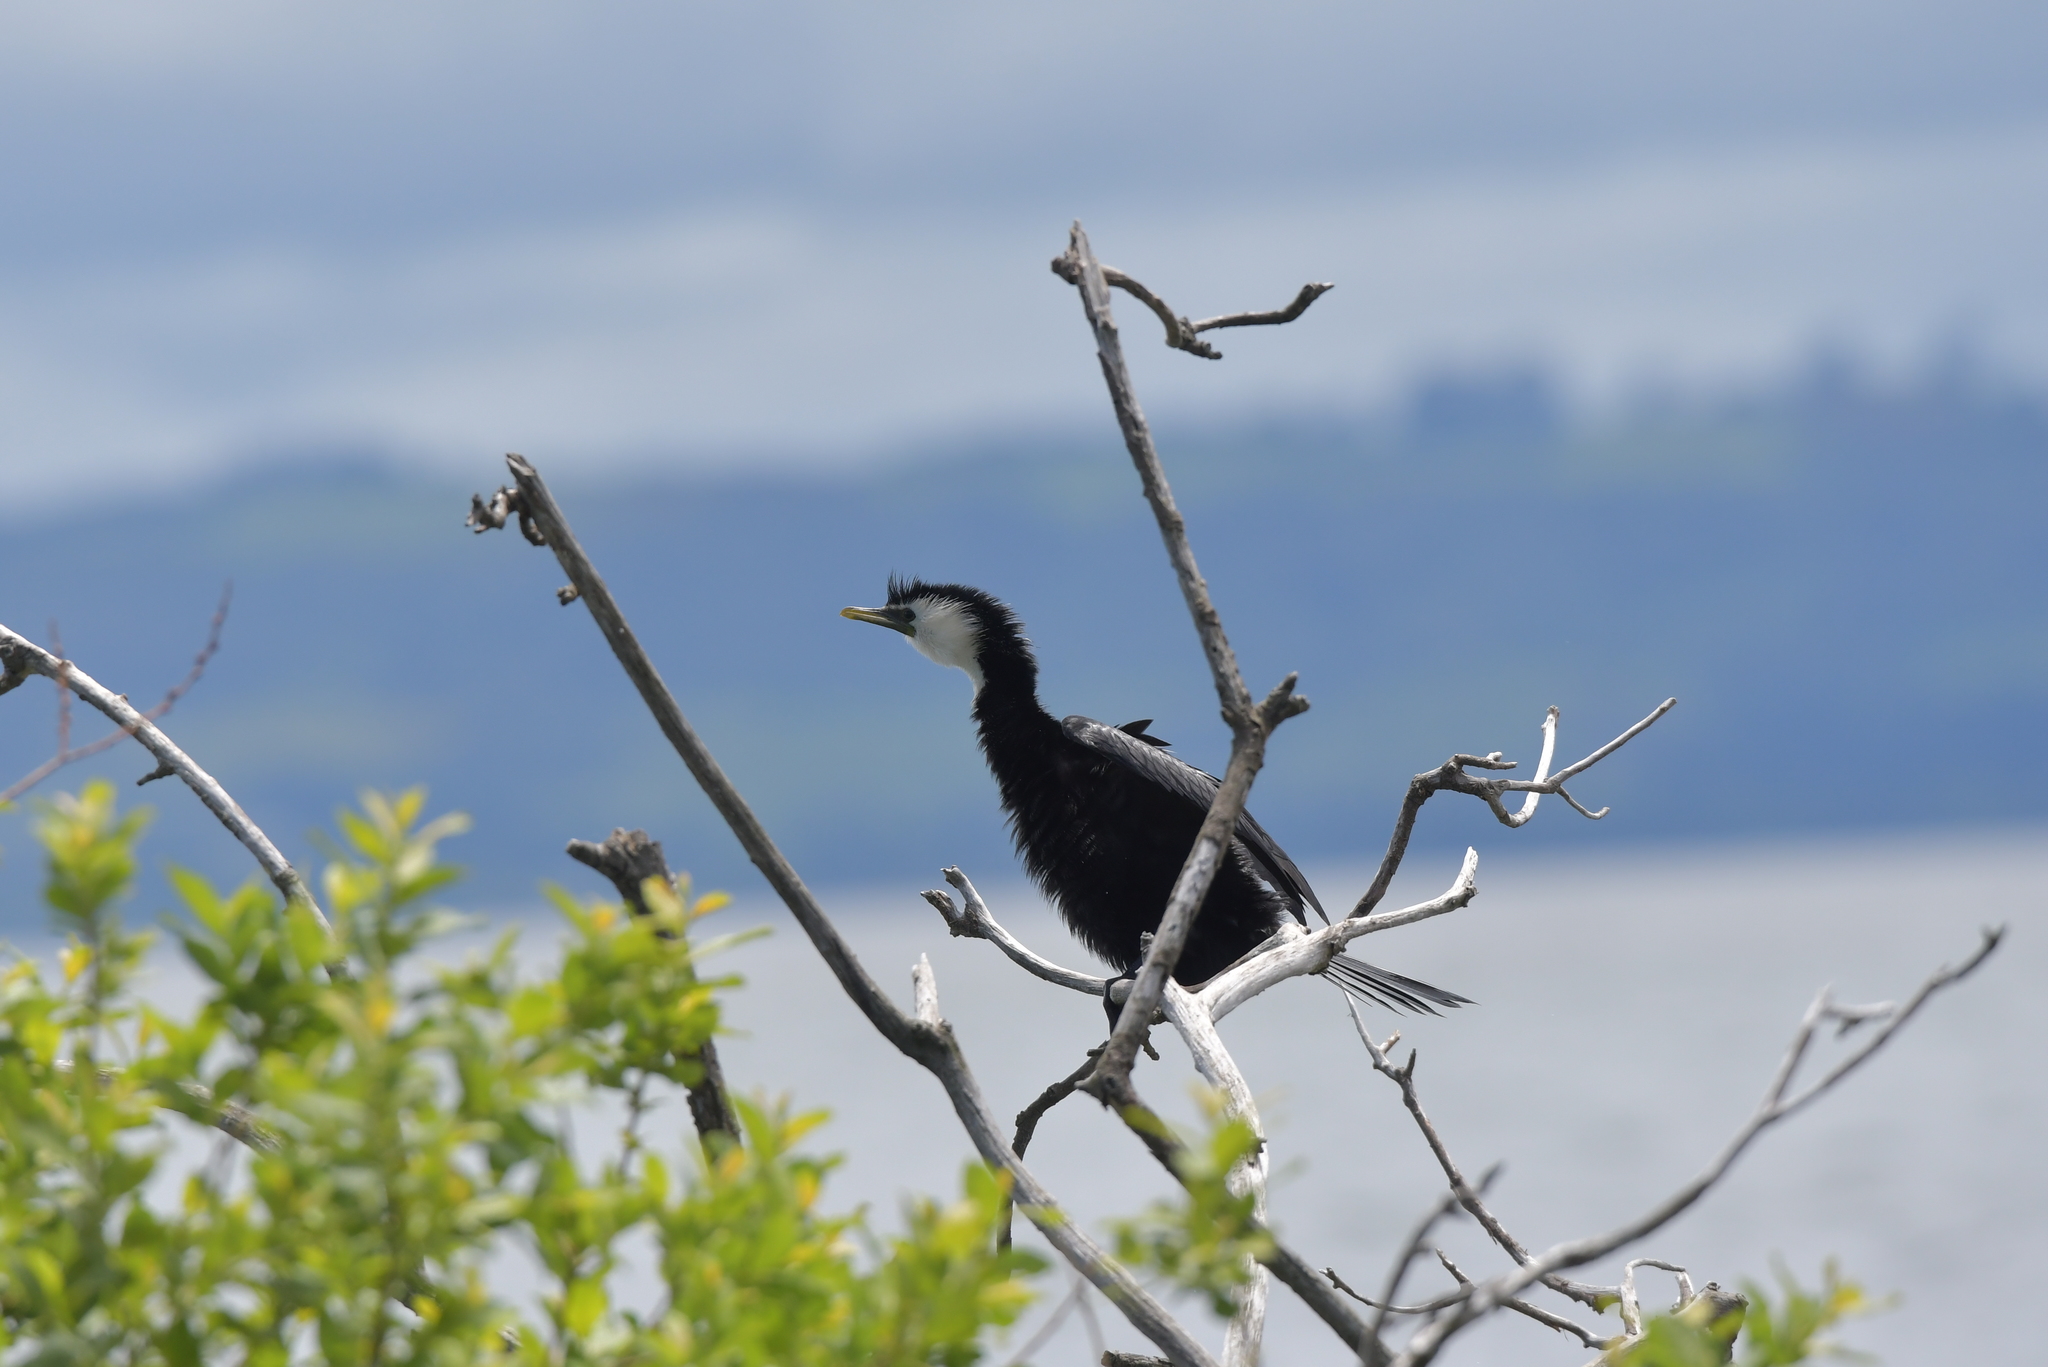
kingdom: Animalia
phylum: Chordata
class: Aves
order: Suliformes
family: Phalacrocoracidae
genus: Microcarbo
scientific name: Microcarbo melanoleucos
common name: Little pied cormorant
